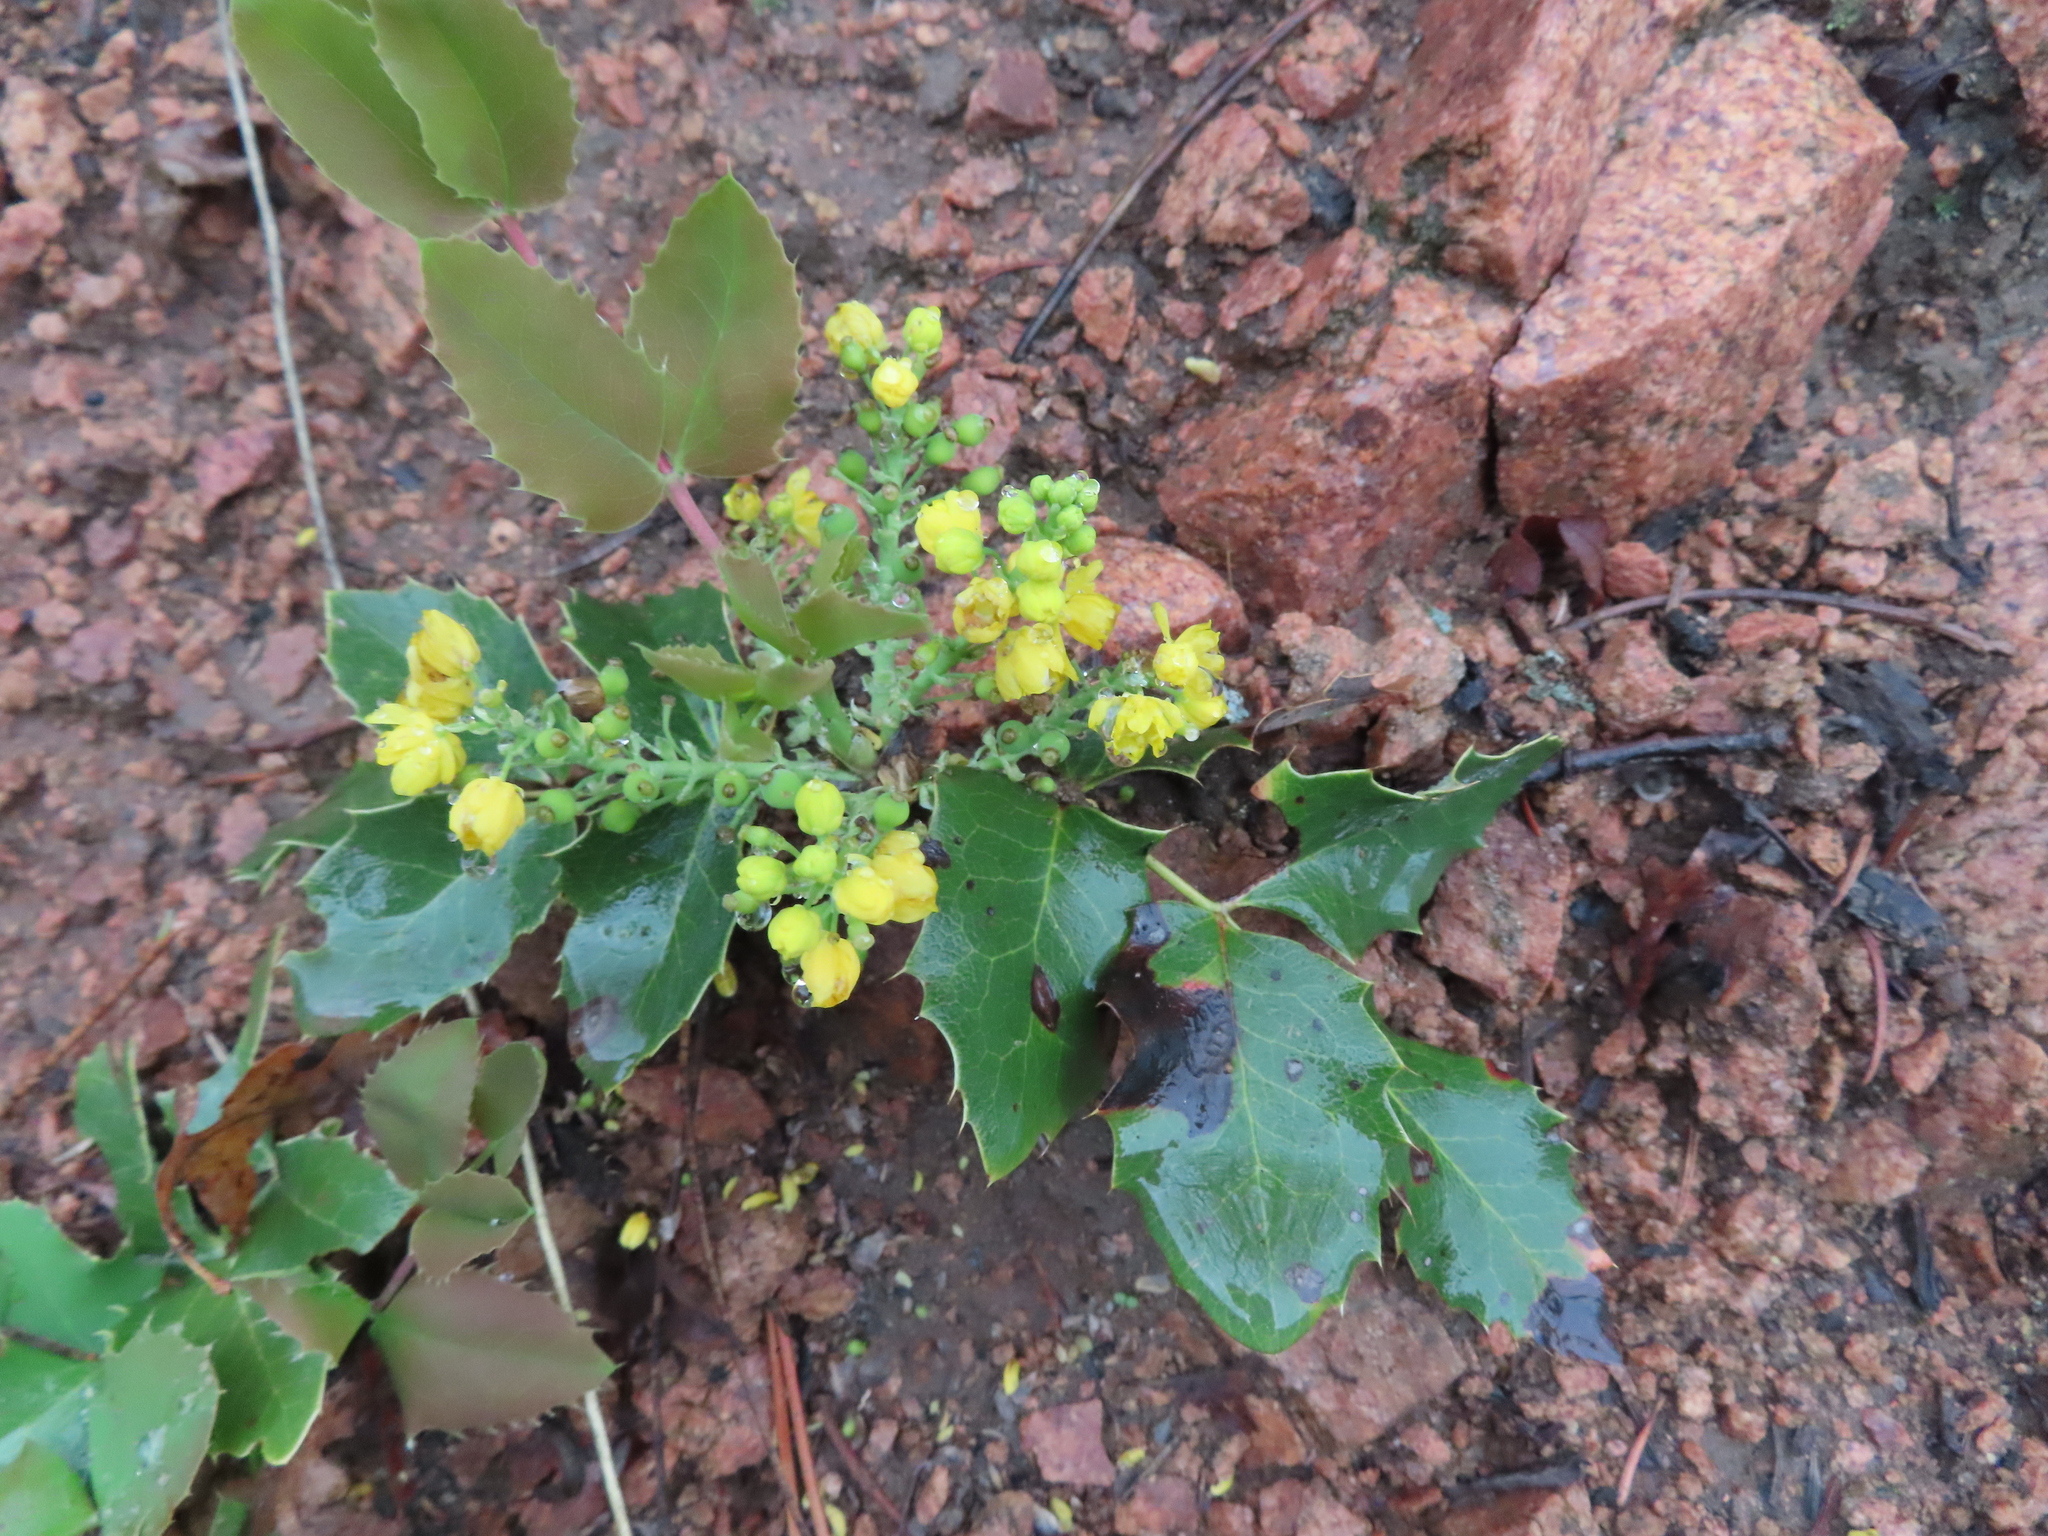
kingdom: Plantae
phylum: Tracheophyta
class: Magnoliopsida
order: Ranunculales
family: Berberidaceae
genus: Mahonia
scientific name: Mahonia repens
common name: Creeping oregon-grape
